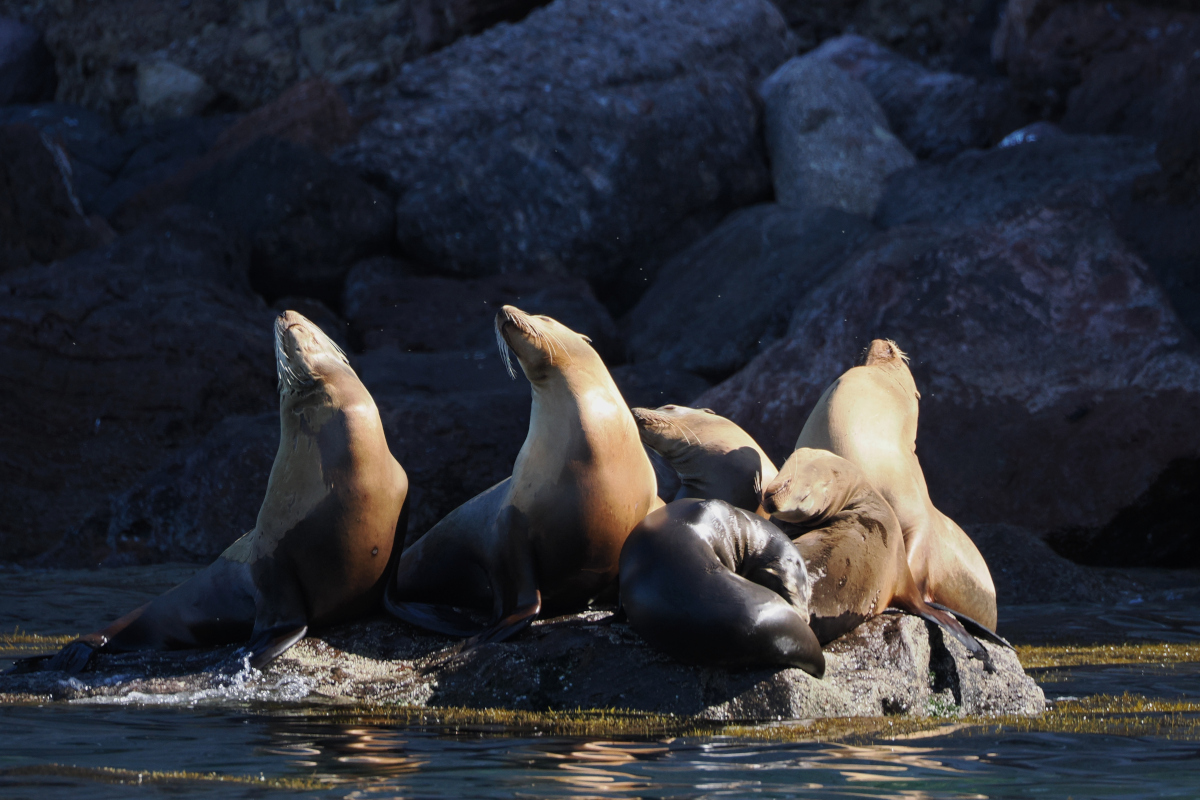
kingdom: Animalia
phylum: Chordata
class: Mammalia
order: Carnivora
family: Otariidae
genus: Zalophus
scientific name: Zalophus californianus
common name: California sea lion
